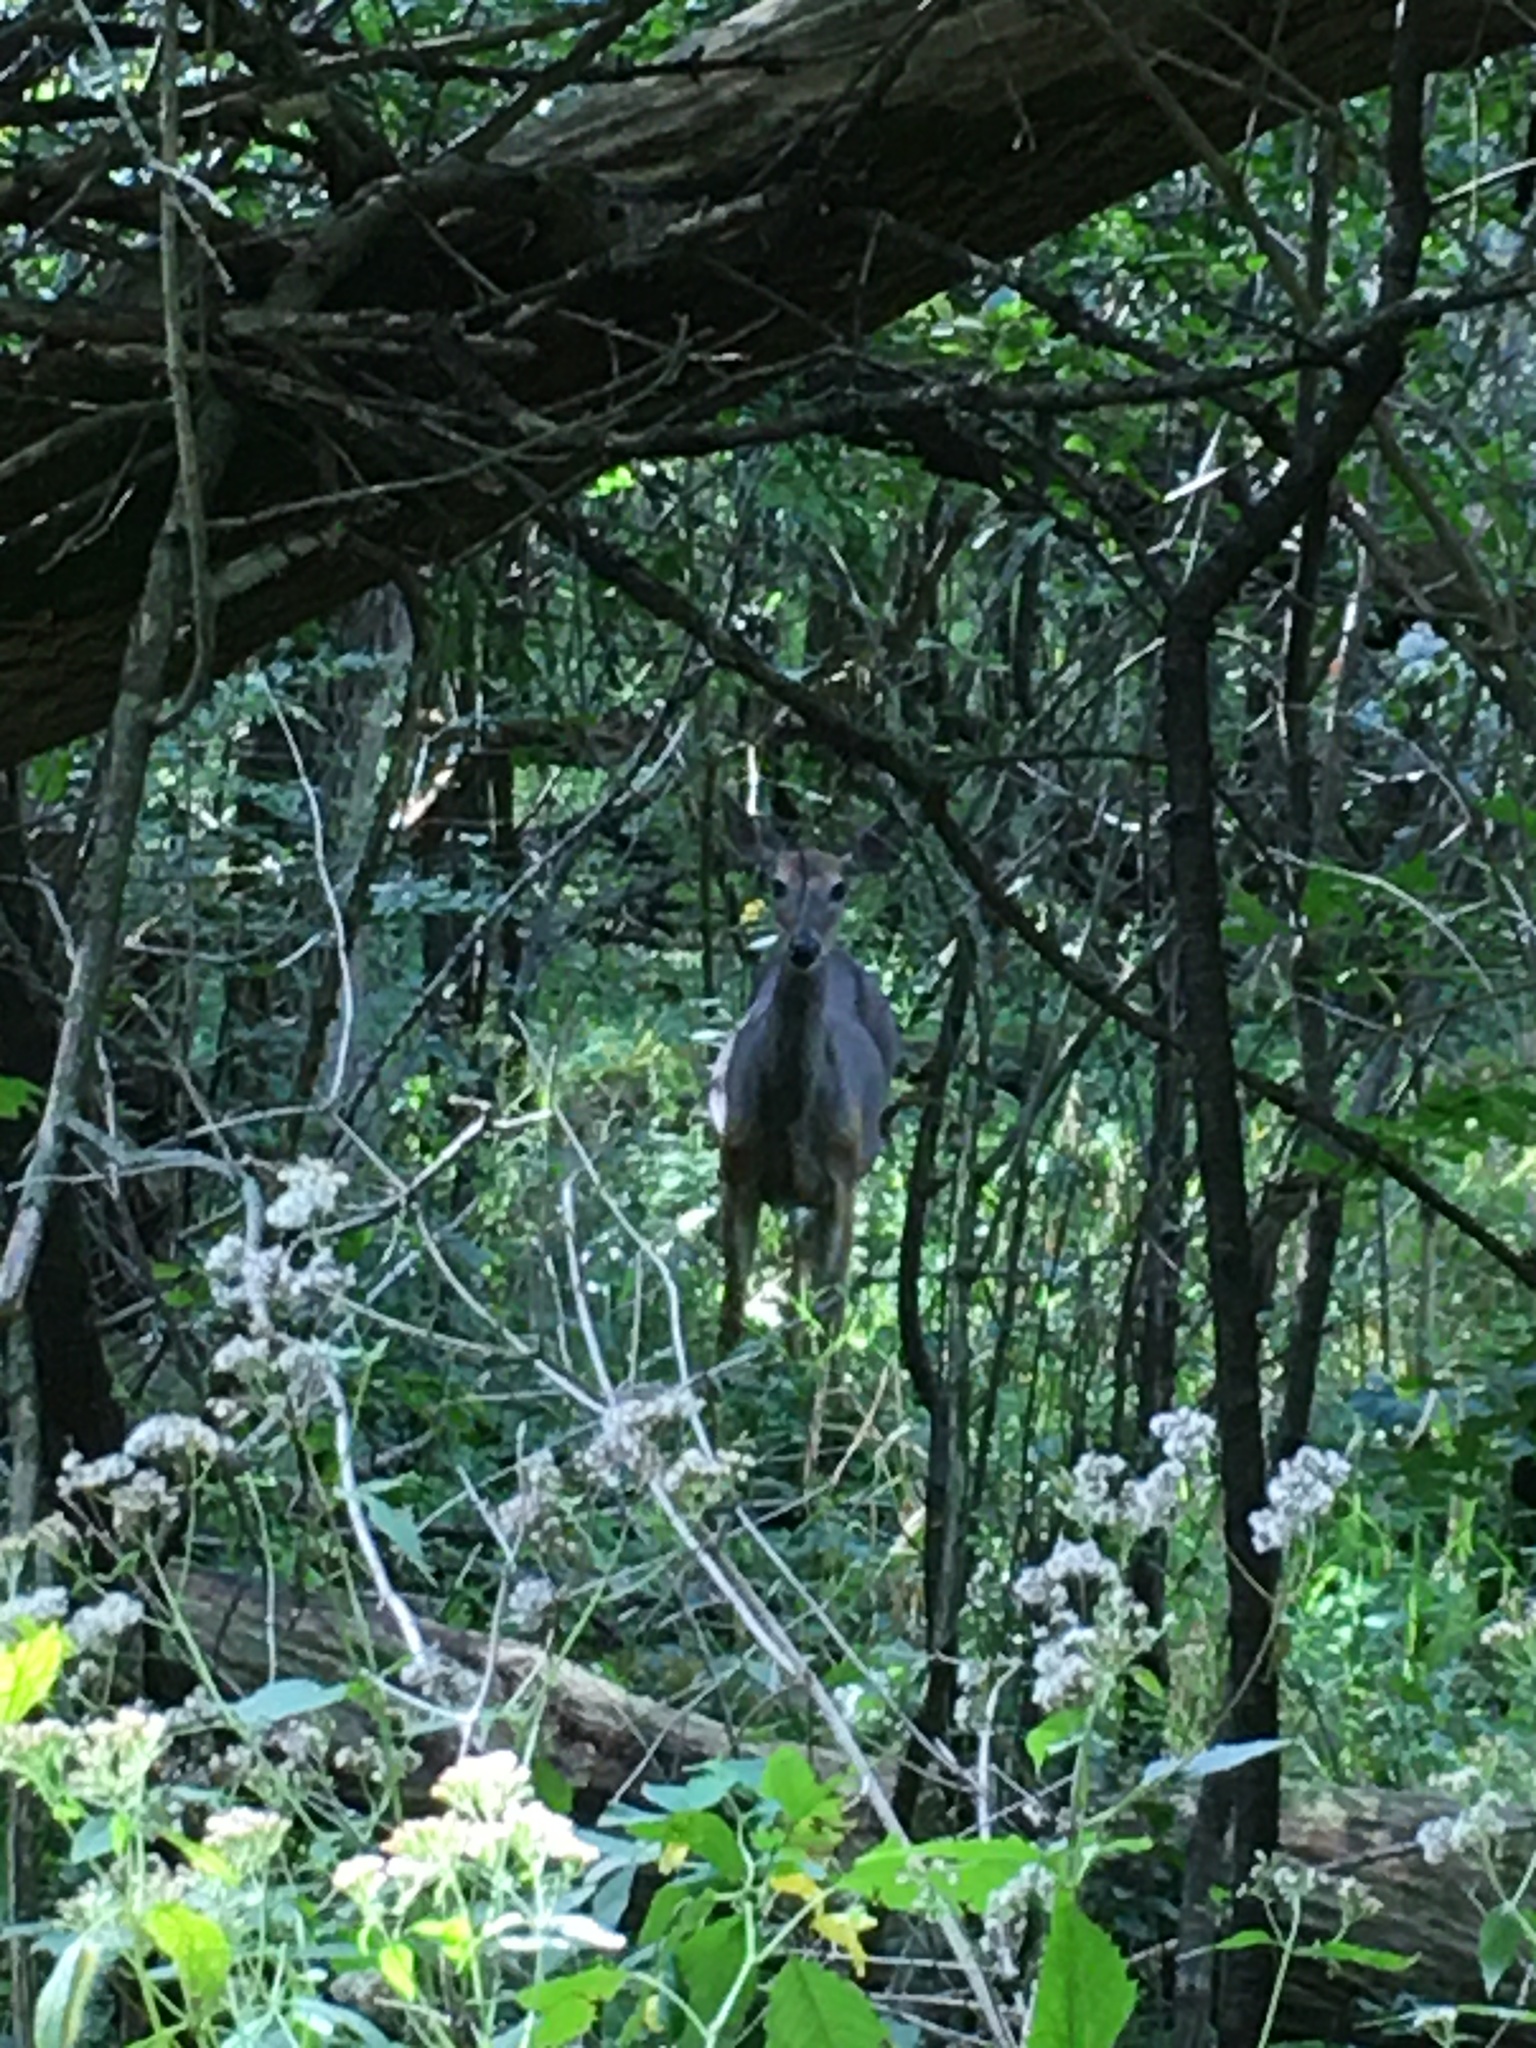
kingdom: Animalia
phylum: Chordata
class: Mammalia
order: Artiodactyla
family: Cervidae
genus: Odocoileus
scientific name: Odocoileus virginianus
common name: White-tailed deer
